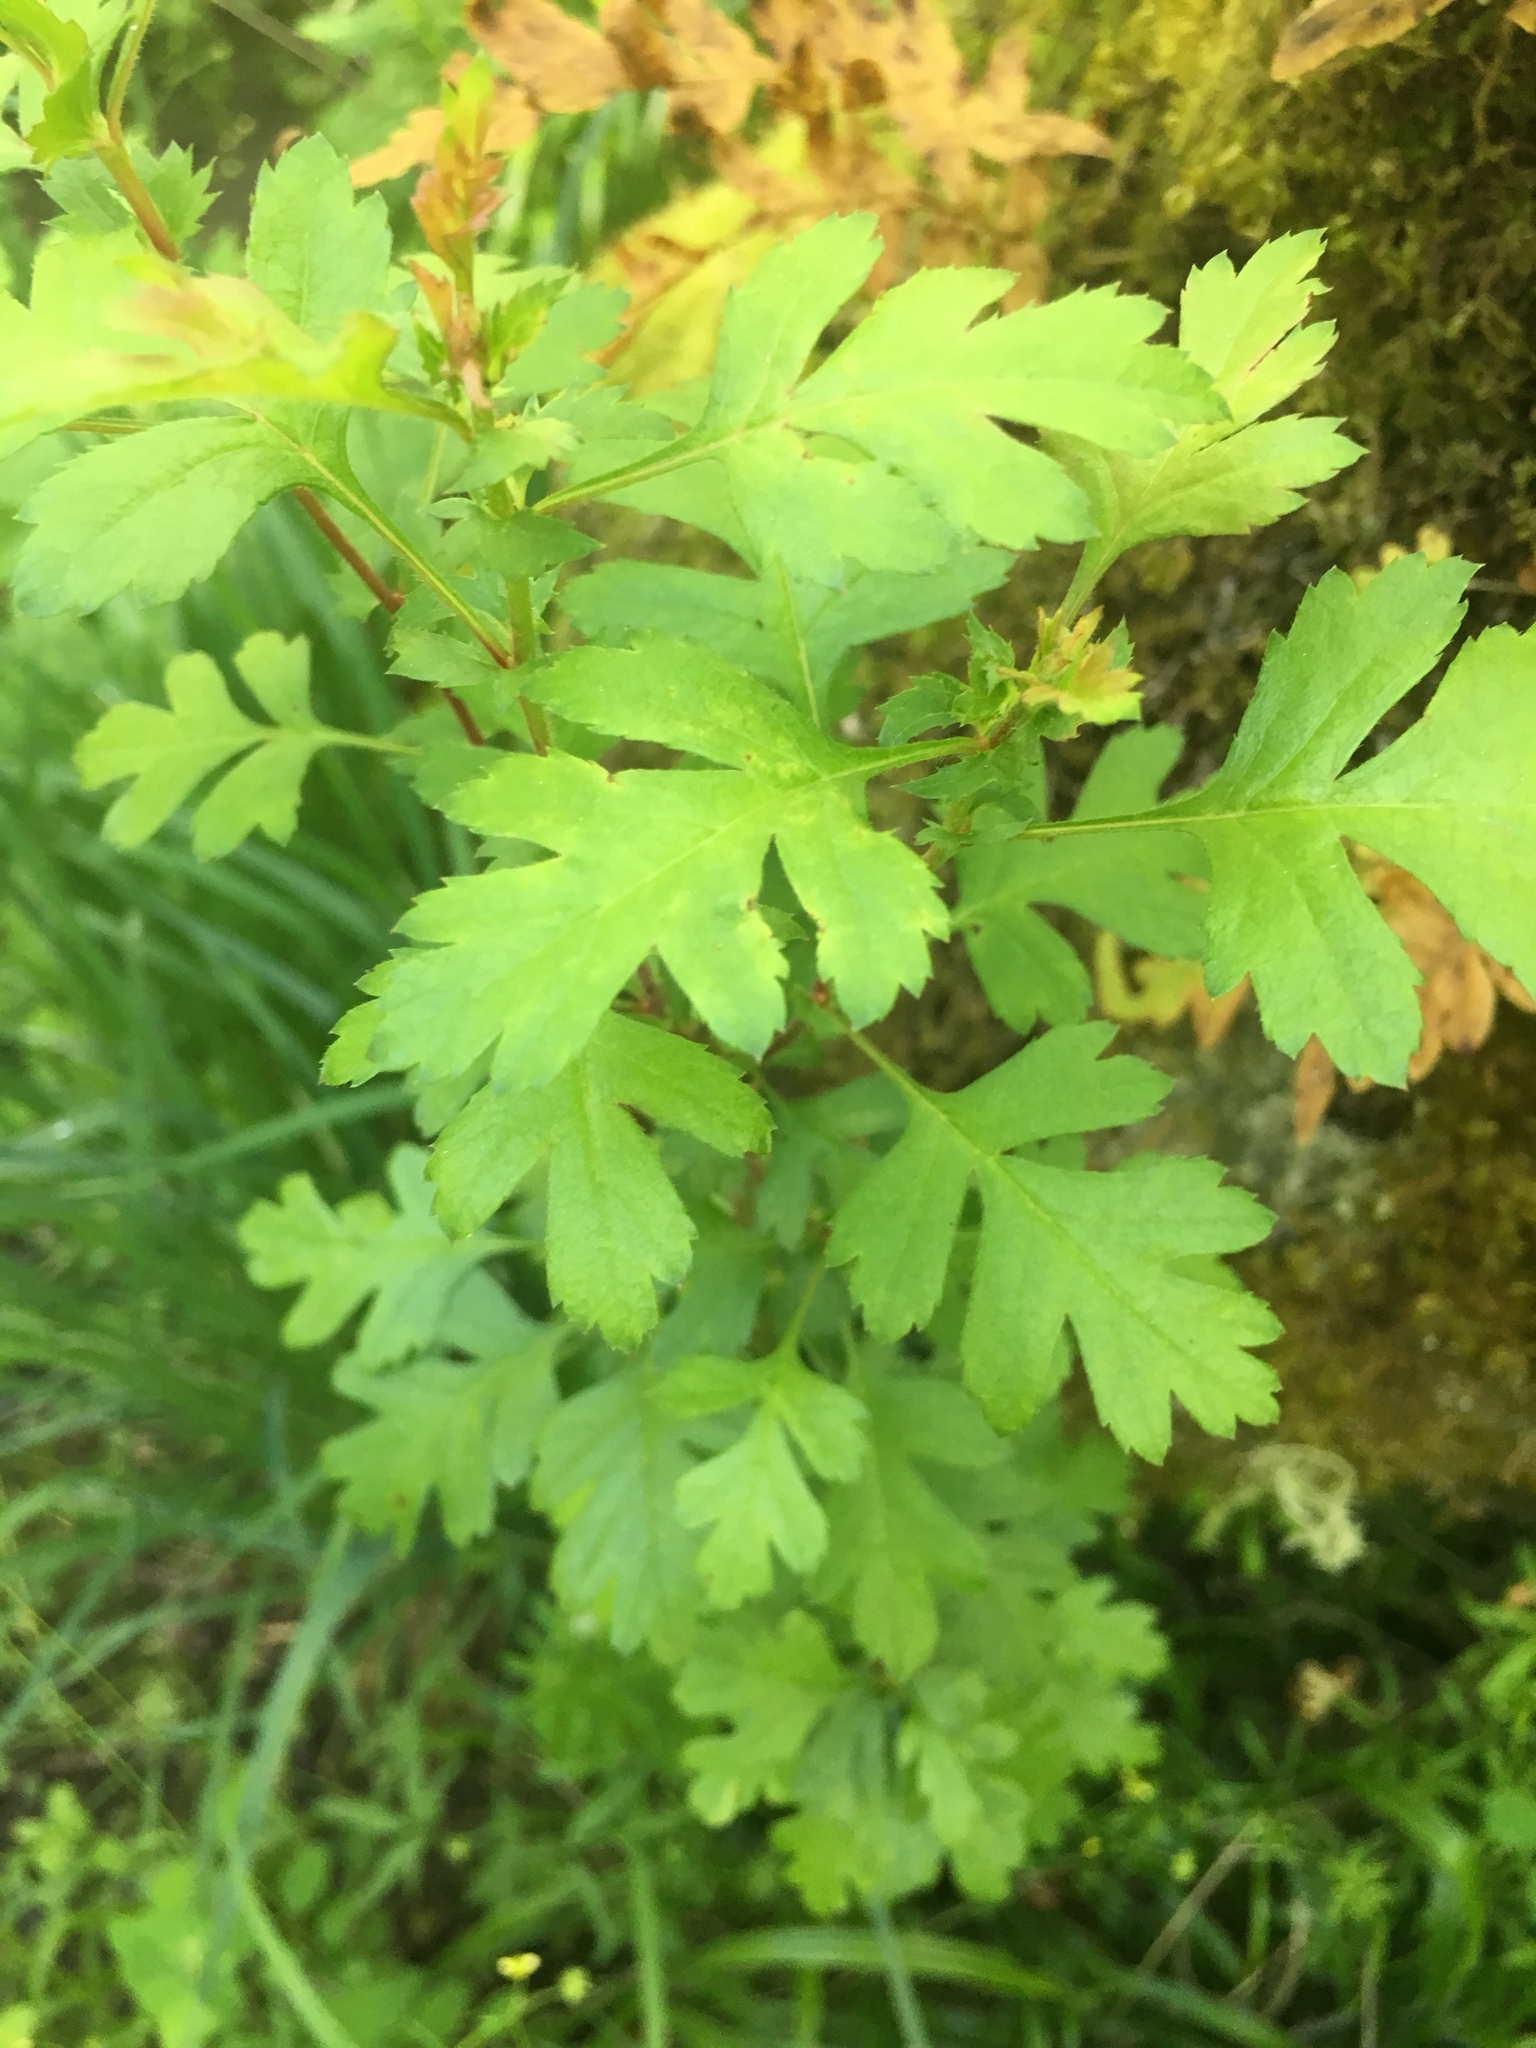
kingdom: Plantae
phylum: Tracheophyta
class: Magnoliopsida
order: Rosales
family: Rosaceae
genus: Crataegus
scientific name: Crataegus monogyna
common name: Hawthorn
